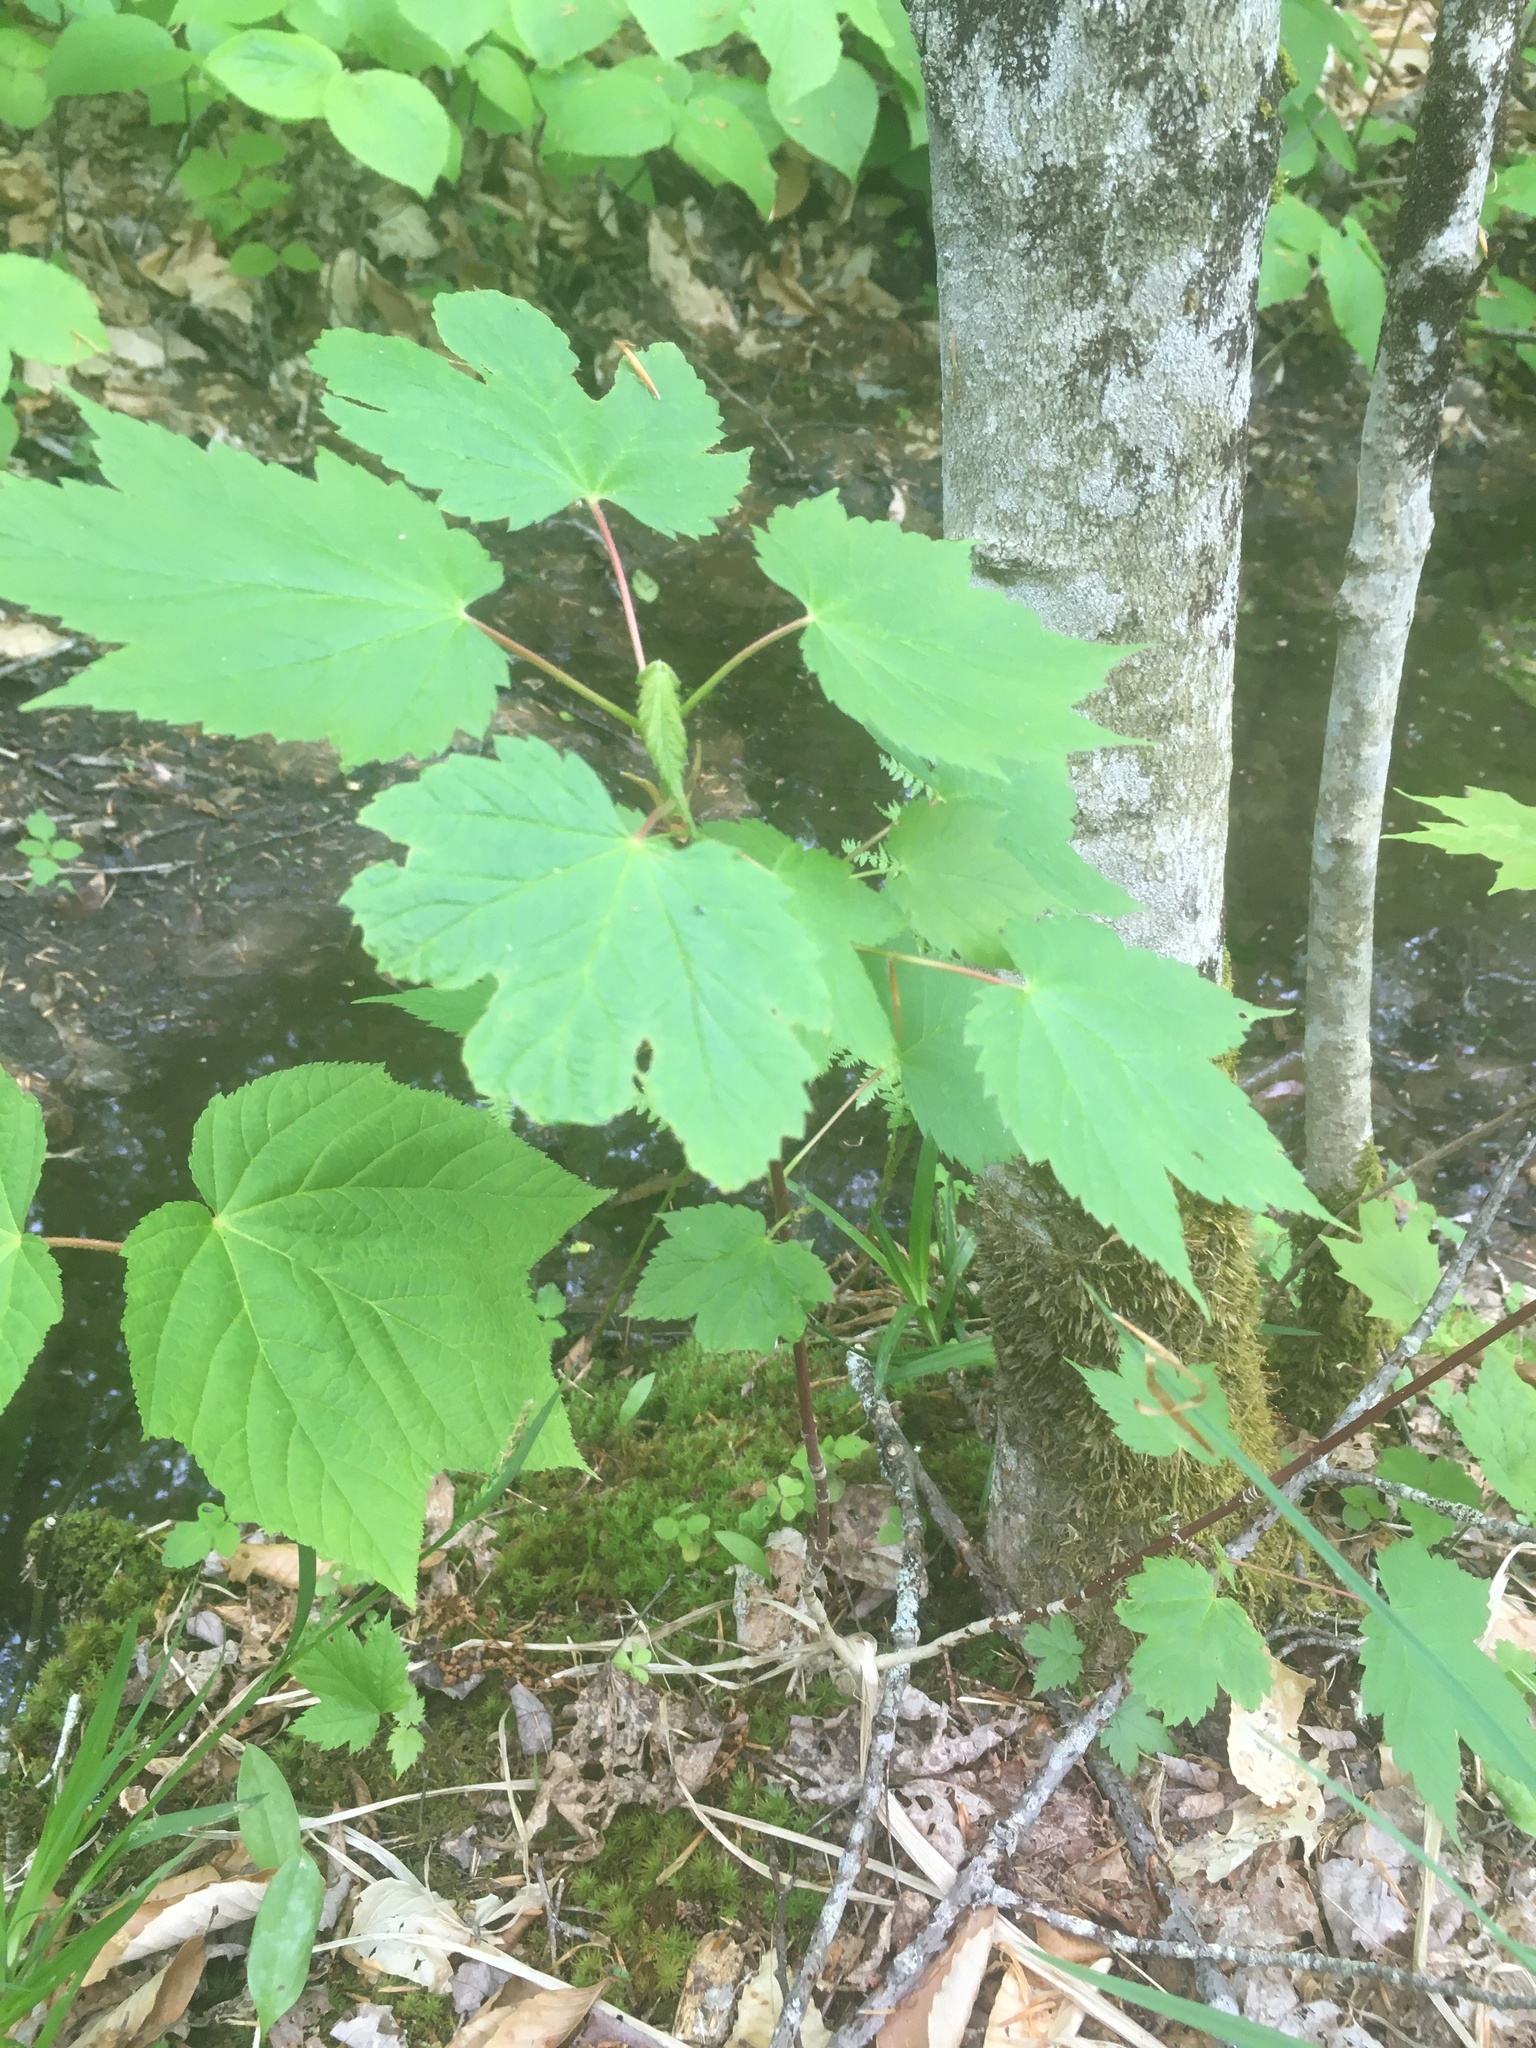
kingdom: Plantae
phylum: Tracheophyta
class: Magnoliopsida
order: Sapindales
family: Sapindaceae
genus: Acer
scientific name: Acer spicatum
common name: Mountain maple
